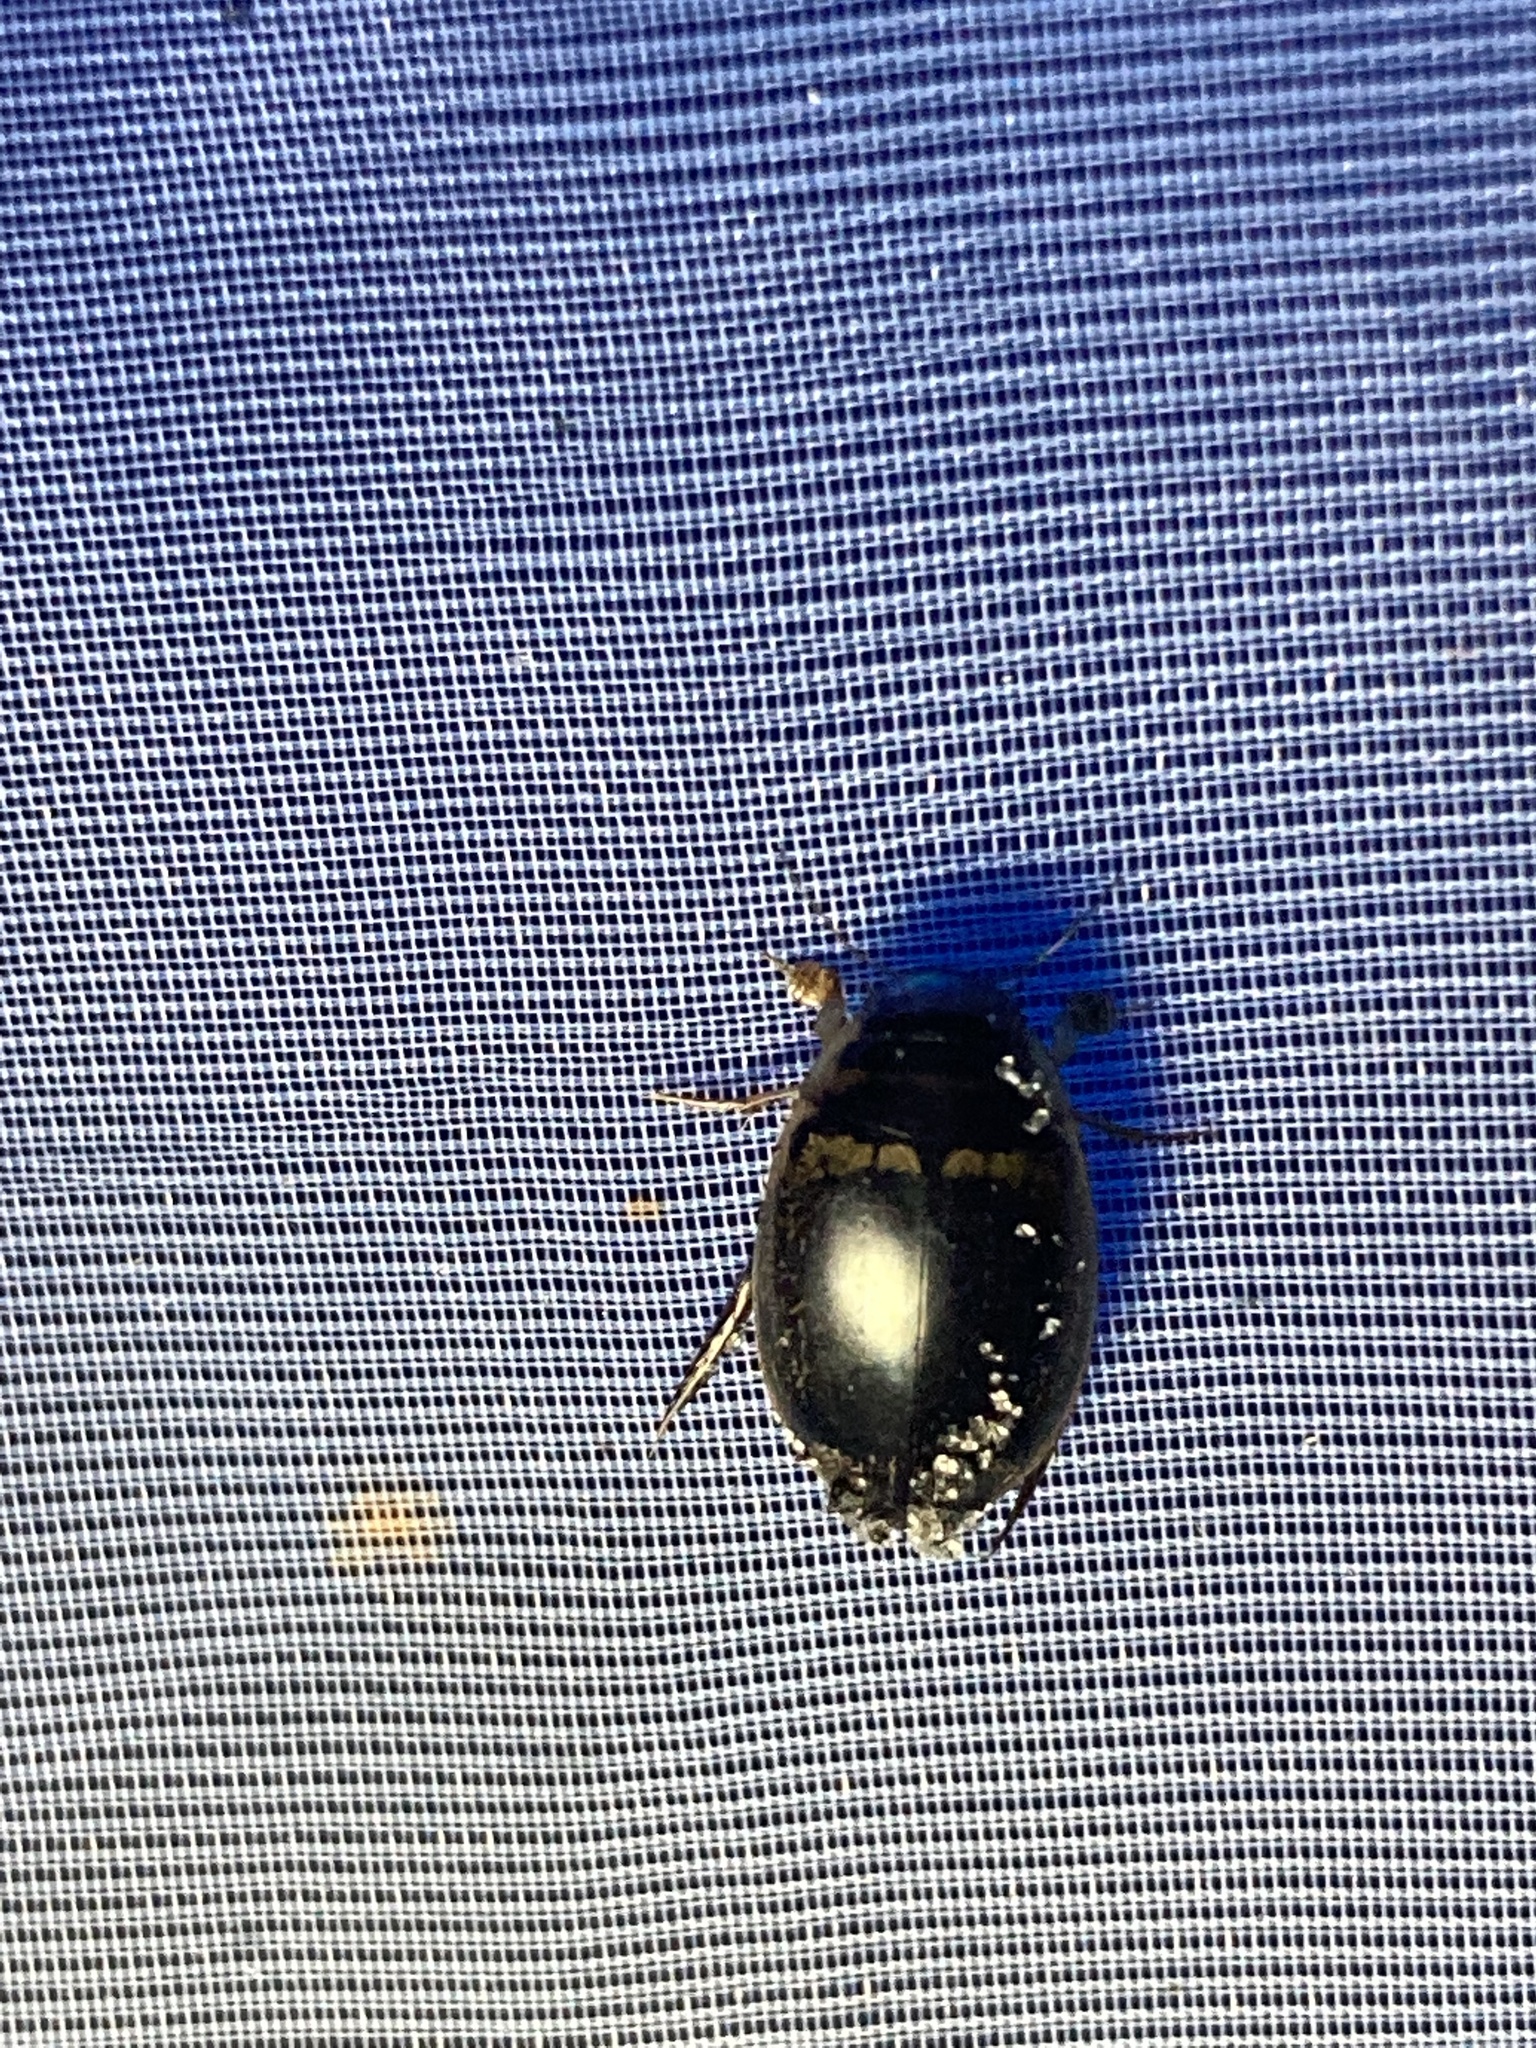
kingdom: Animalia
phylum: Arthropoda
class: Insecta
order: Coleoptera
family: Dytiscidae
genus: Thermonectus
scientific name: Thermonectus basillaris
